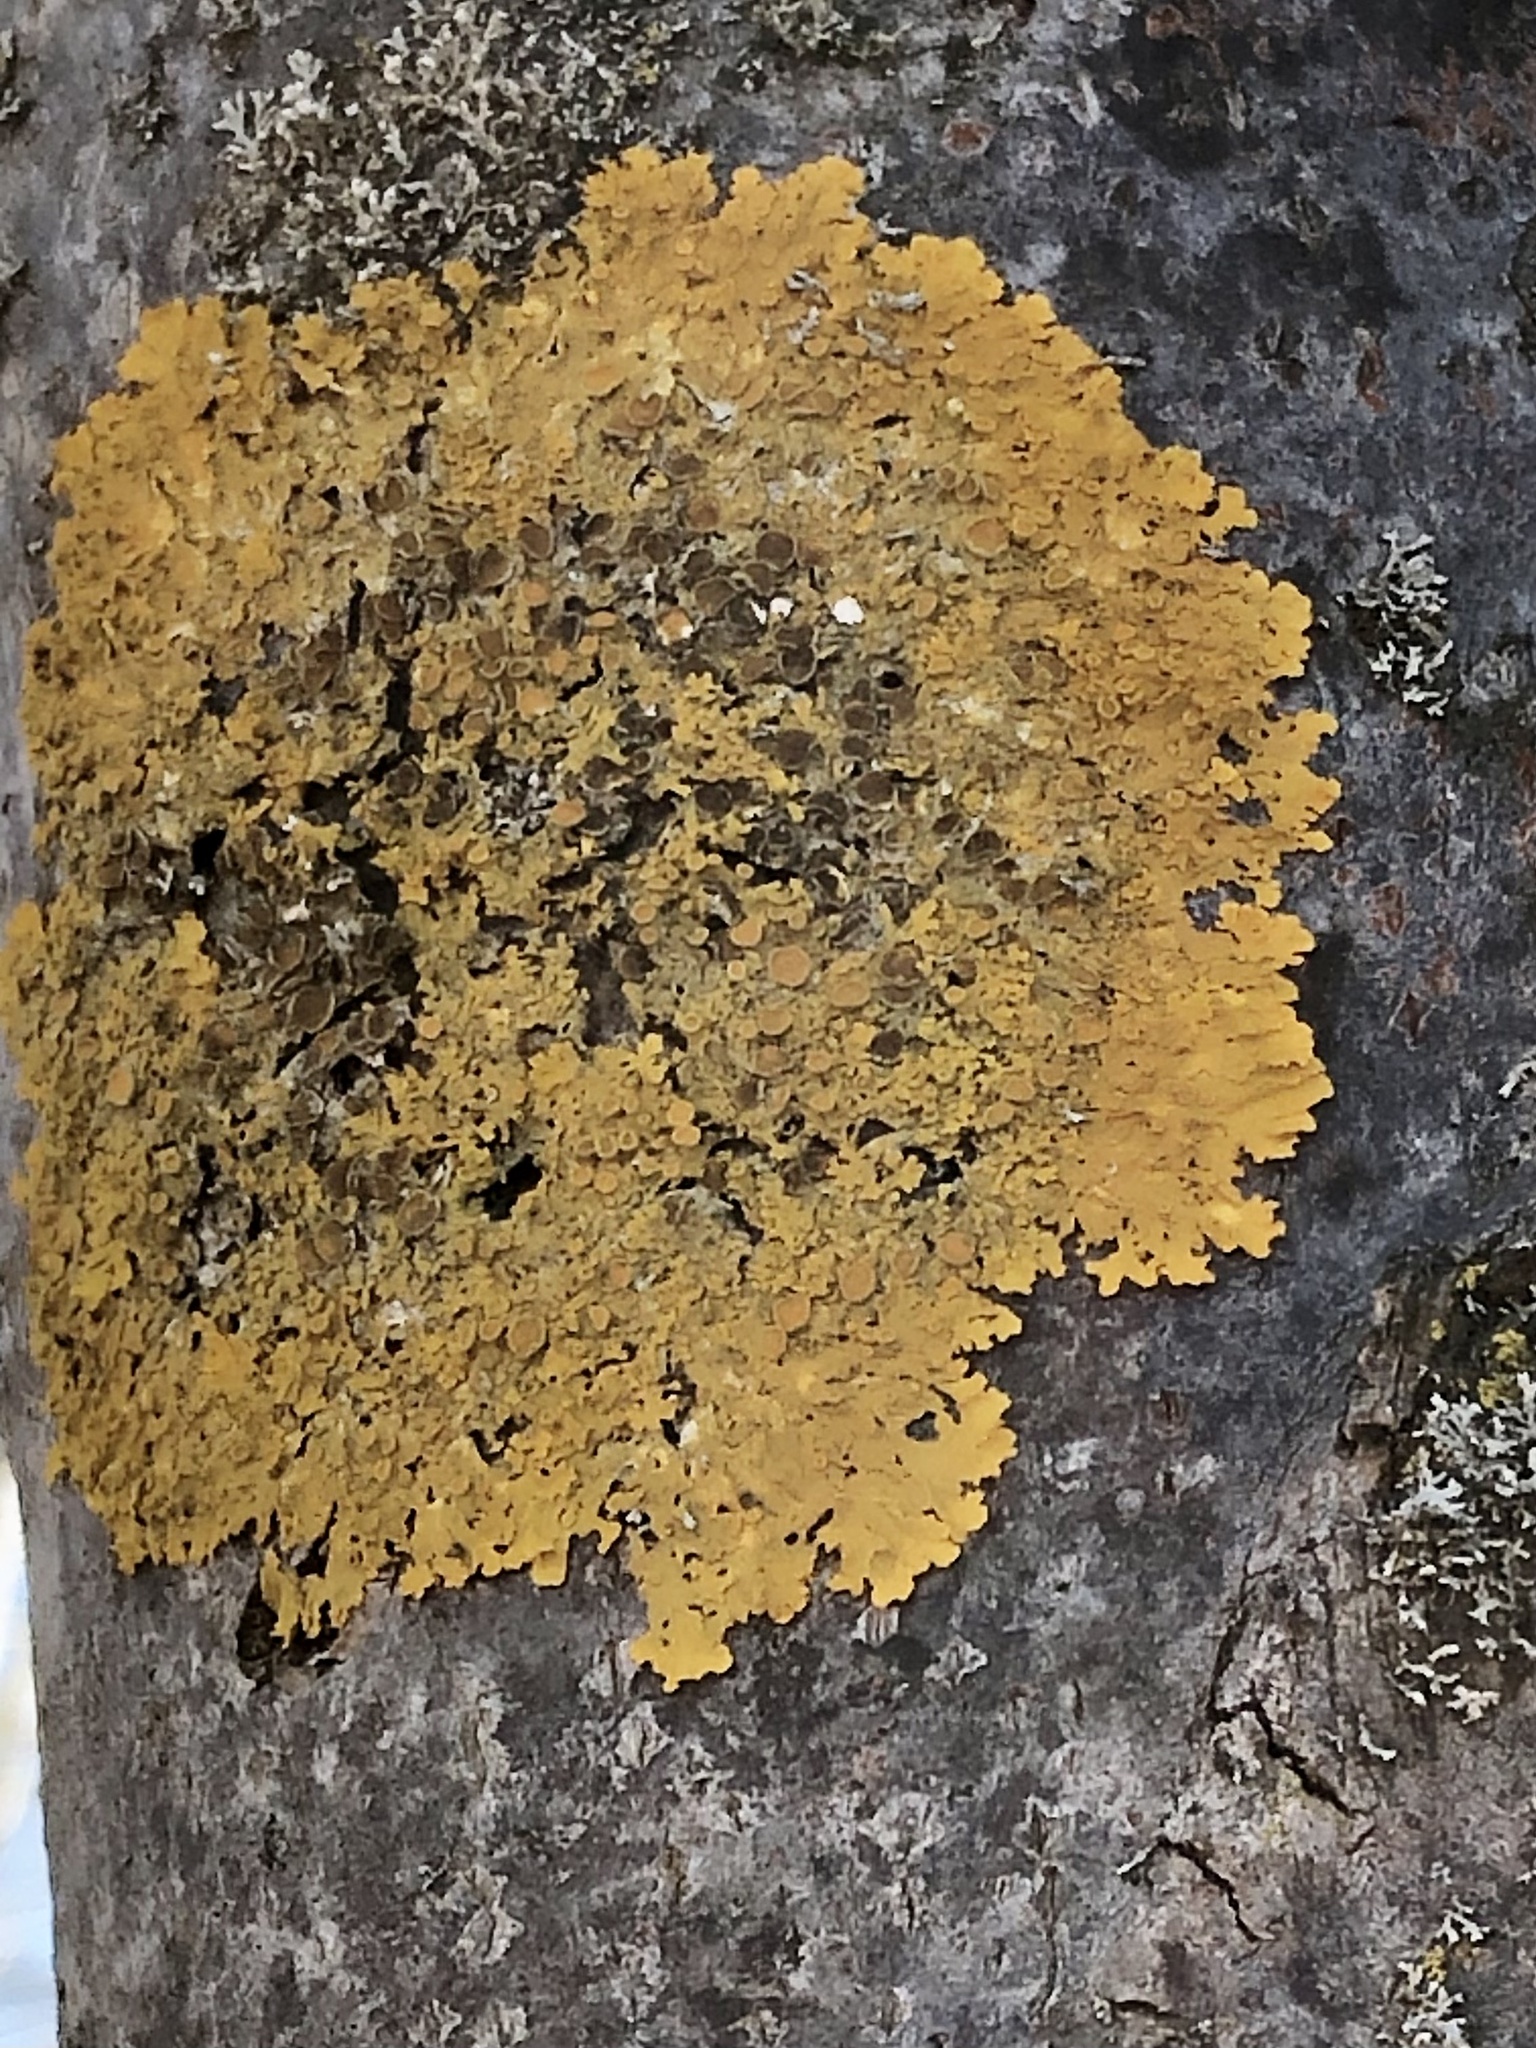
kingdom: Fungi
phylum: Ascomycota
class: Lecanoromycetes
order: Teloschistales
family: Teloschistaceae
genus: Xanthoria
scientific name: Xanthoria parietina
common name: Common orange lichen
